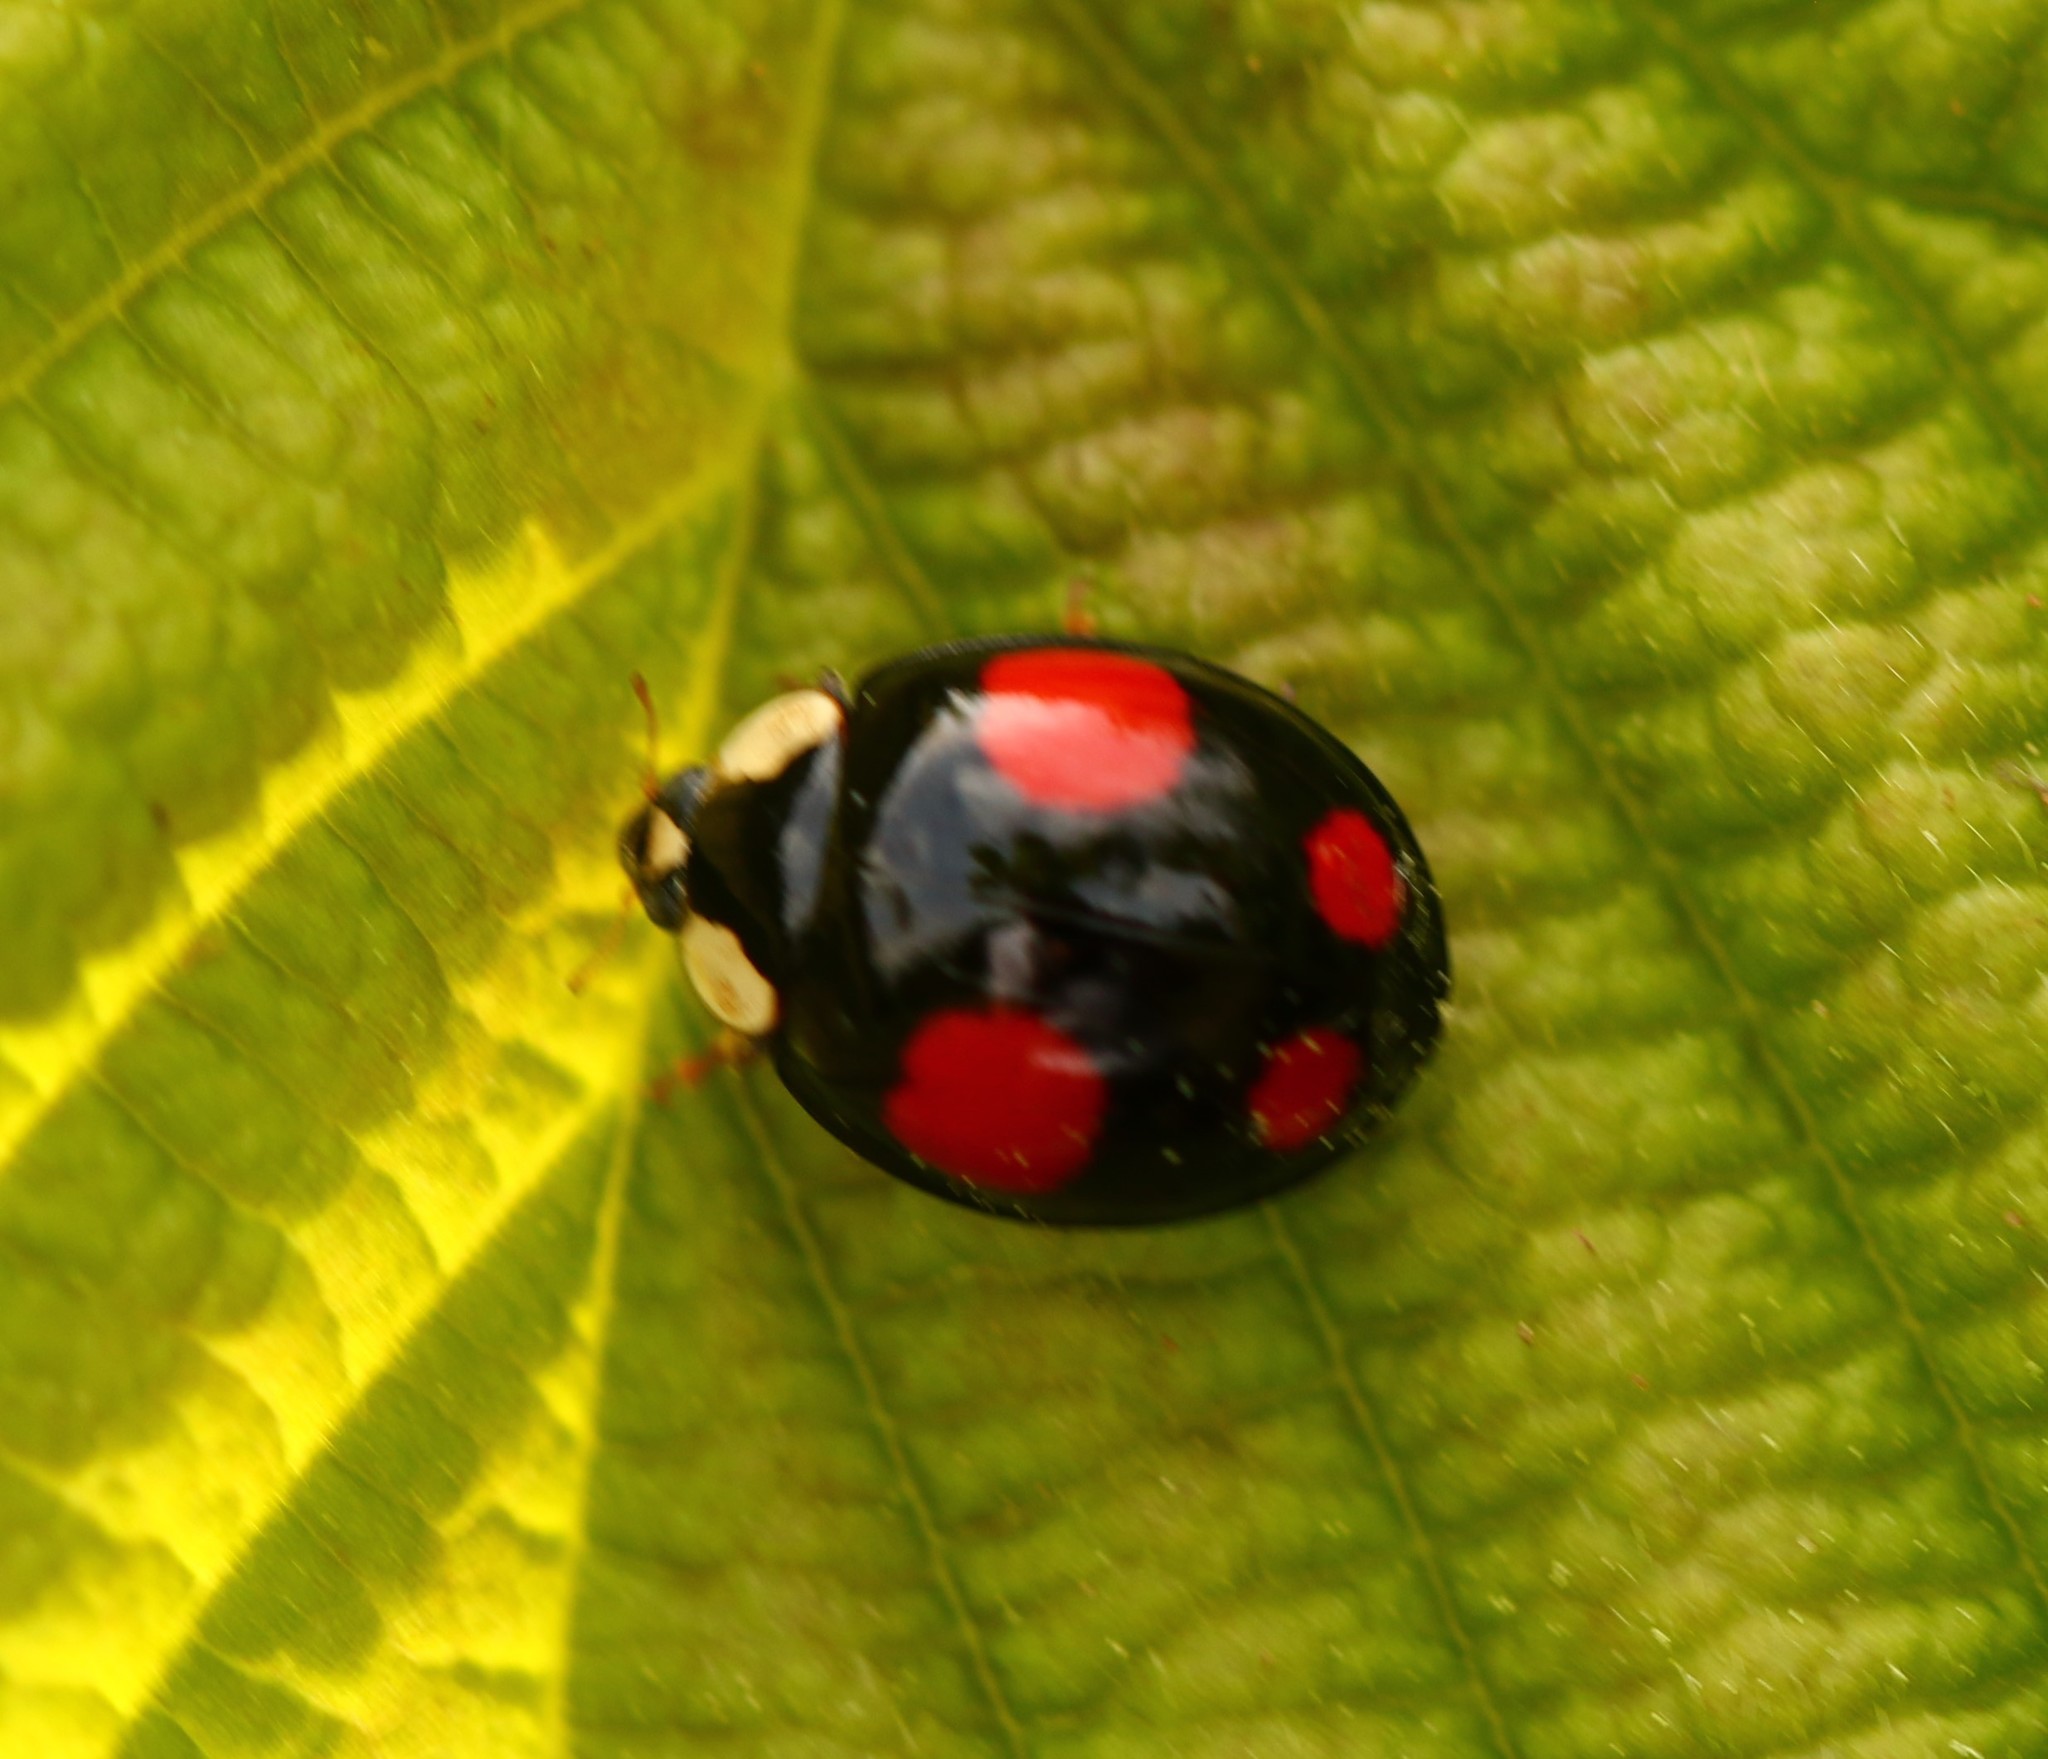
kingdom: Animalia
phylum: Arthropoda
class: Insecta
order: Coleoptera
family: Coccinellidae
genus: Harmonia
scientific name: Harmonia axyridis
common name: Harlequin ladybird
